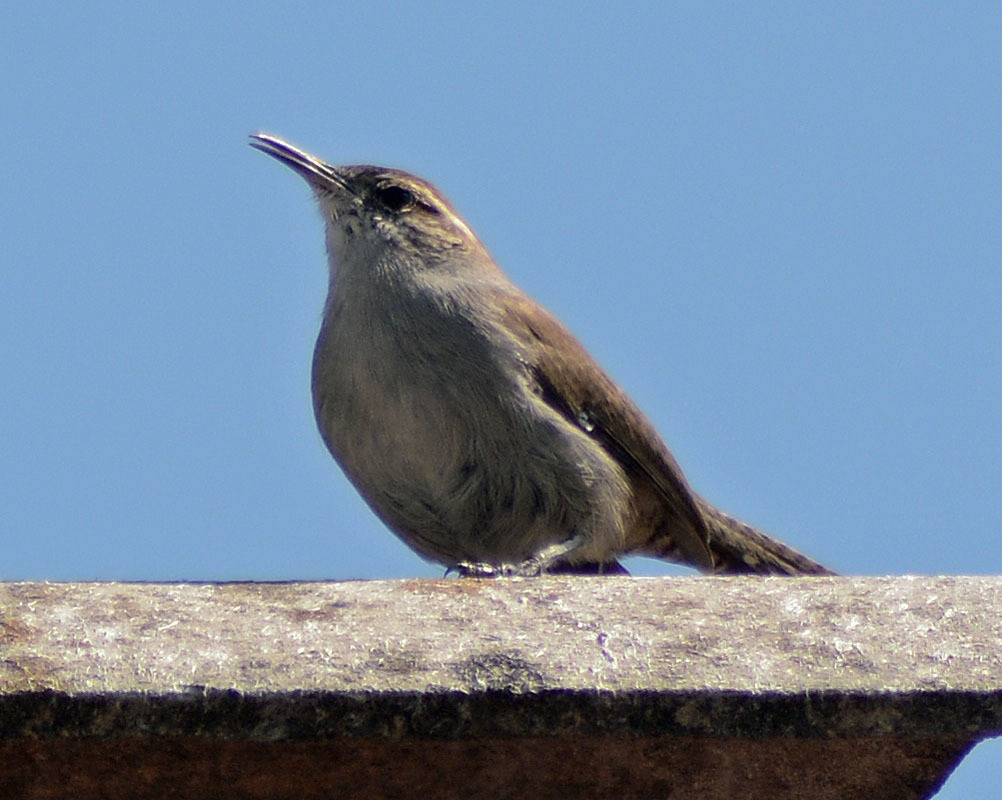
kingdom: Animalia
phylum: Chordata
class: Aves
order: Passeriformes
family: Troglodytidae
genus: Thryomanes
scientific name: Thryomanes bewickii
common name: Bewick's wren
